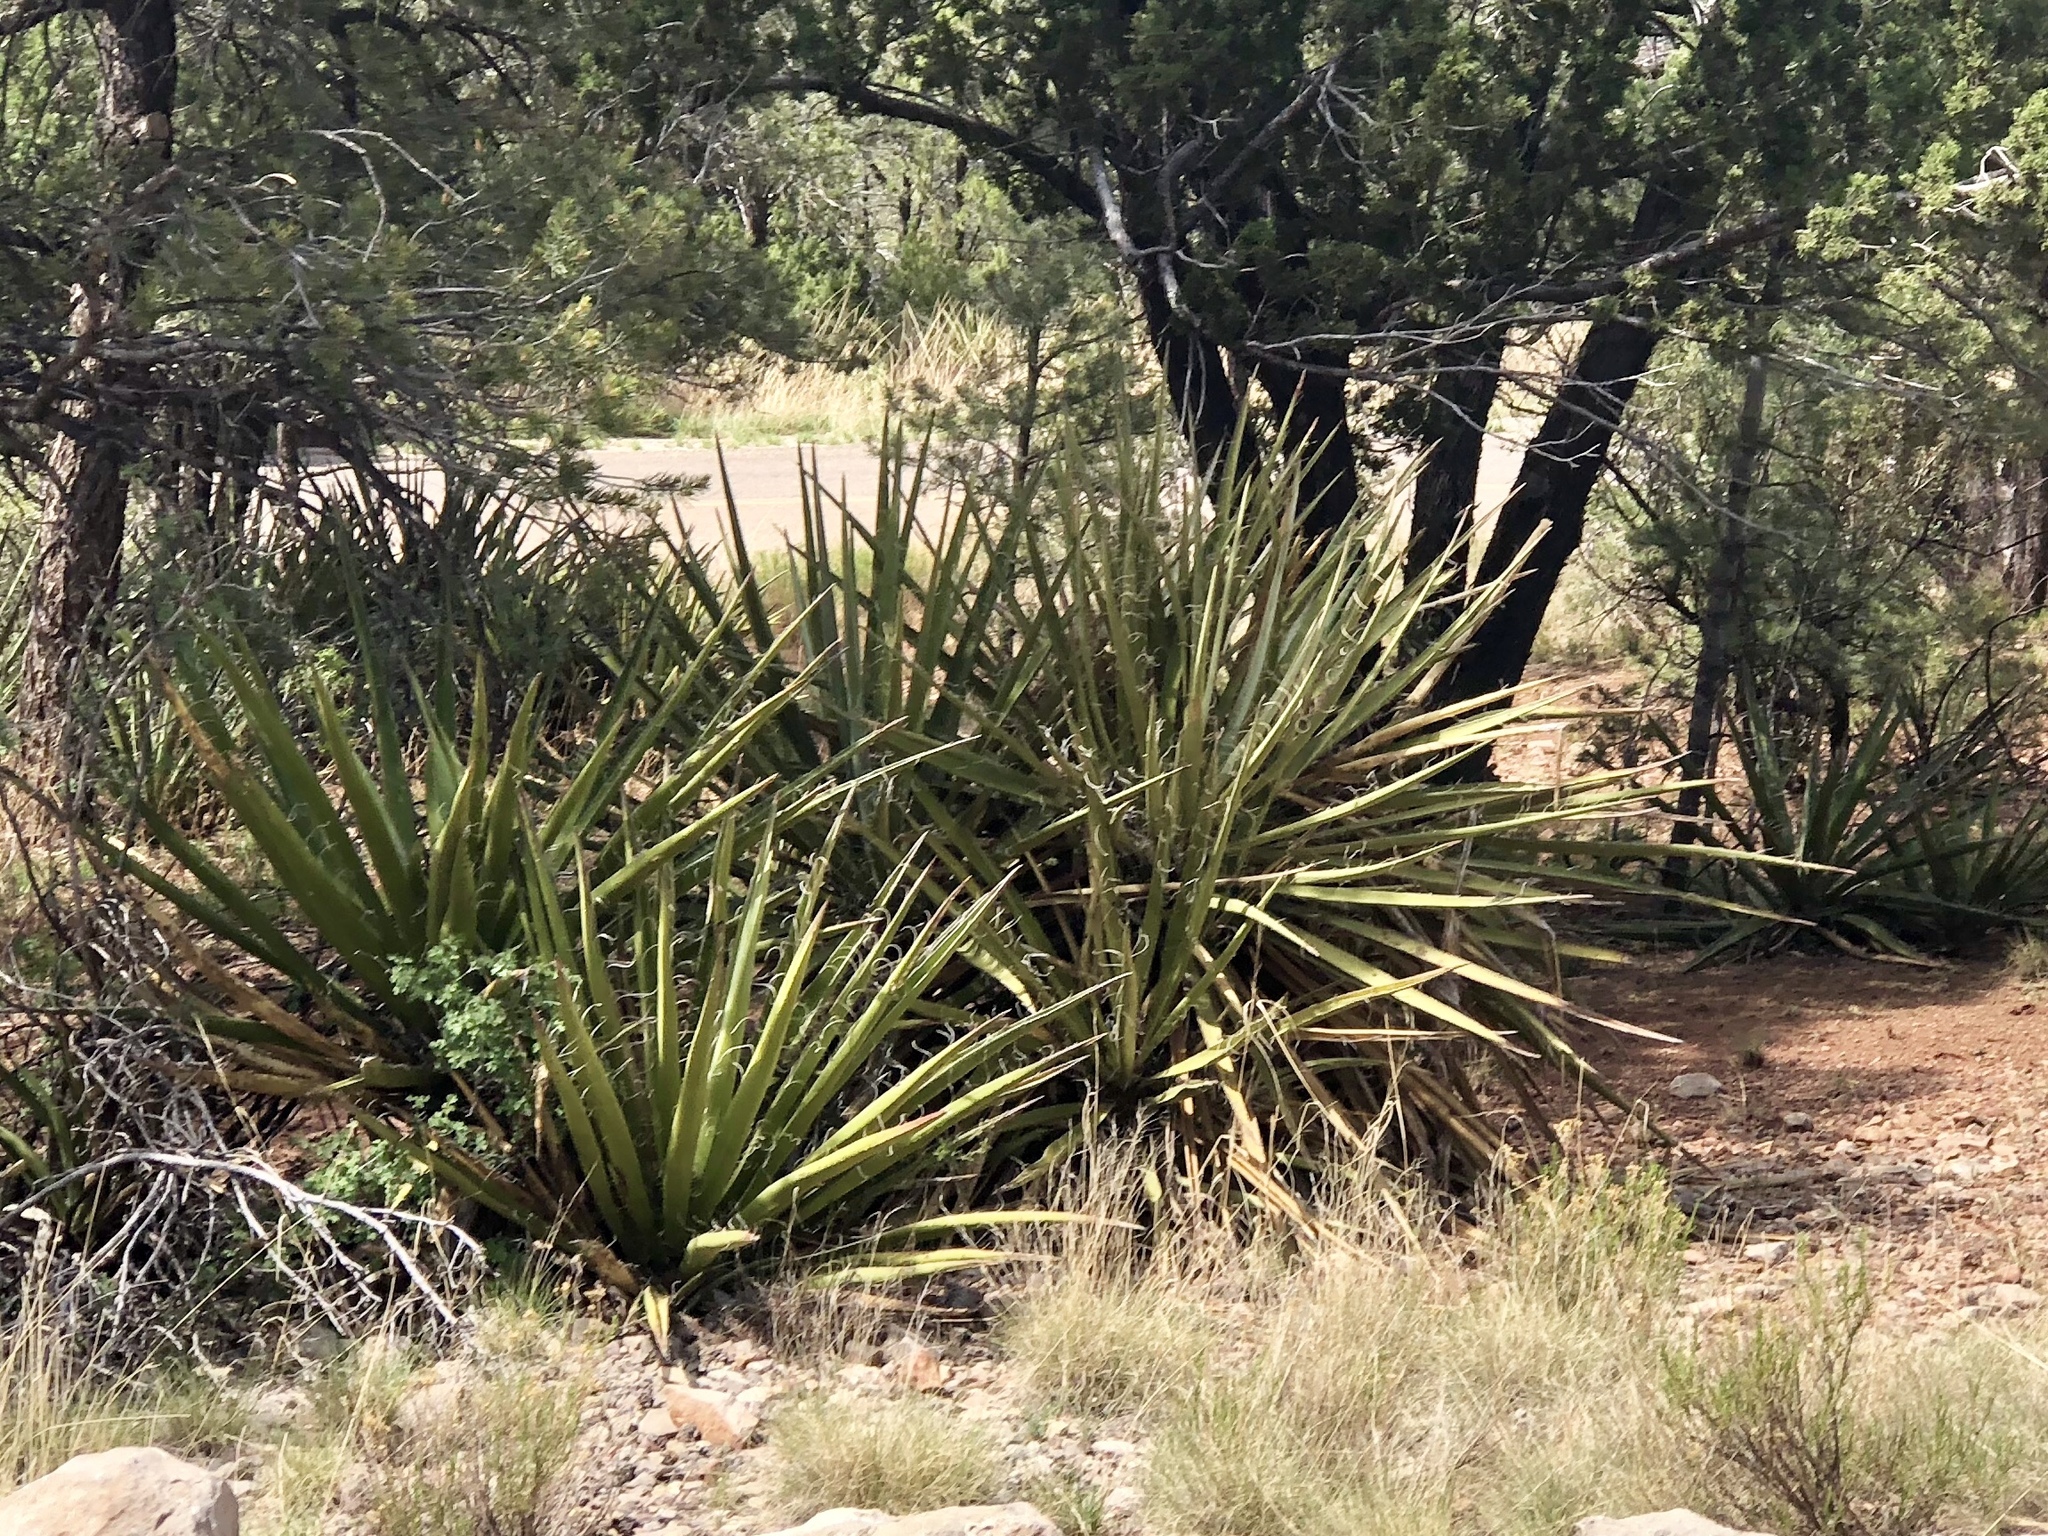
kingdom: Plantae
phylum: Tracheophyta
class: Liliopsida
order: Asparagales
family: Asparagaceae
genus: Yucca
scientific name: Yucca baccata
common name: Banana yucca
